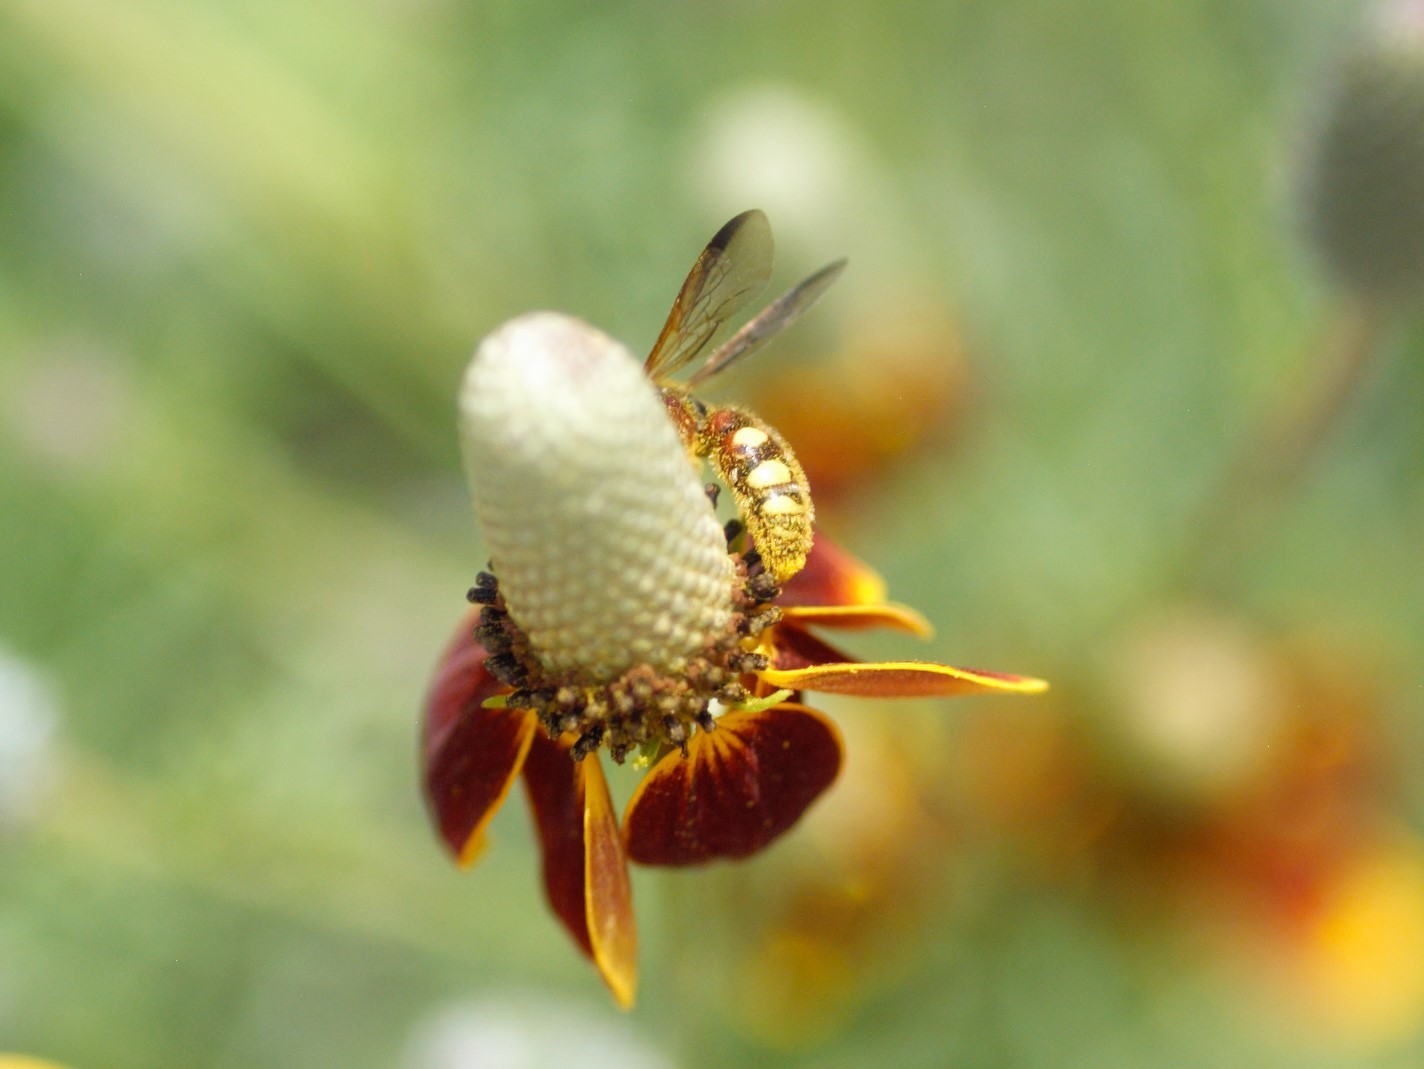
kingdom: Animalia
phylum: Arthropoda
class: Insecta
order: Hymenoptera
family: Scoliidae
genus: Scolia
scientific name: Scolia nobilitata
